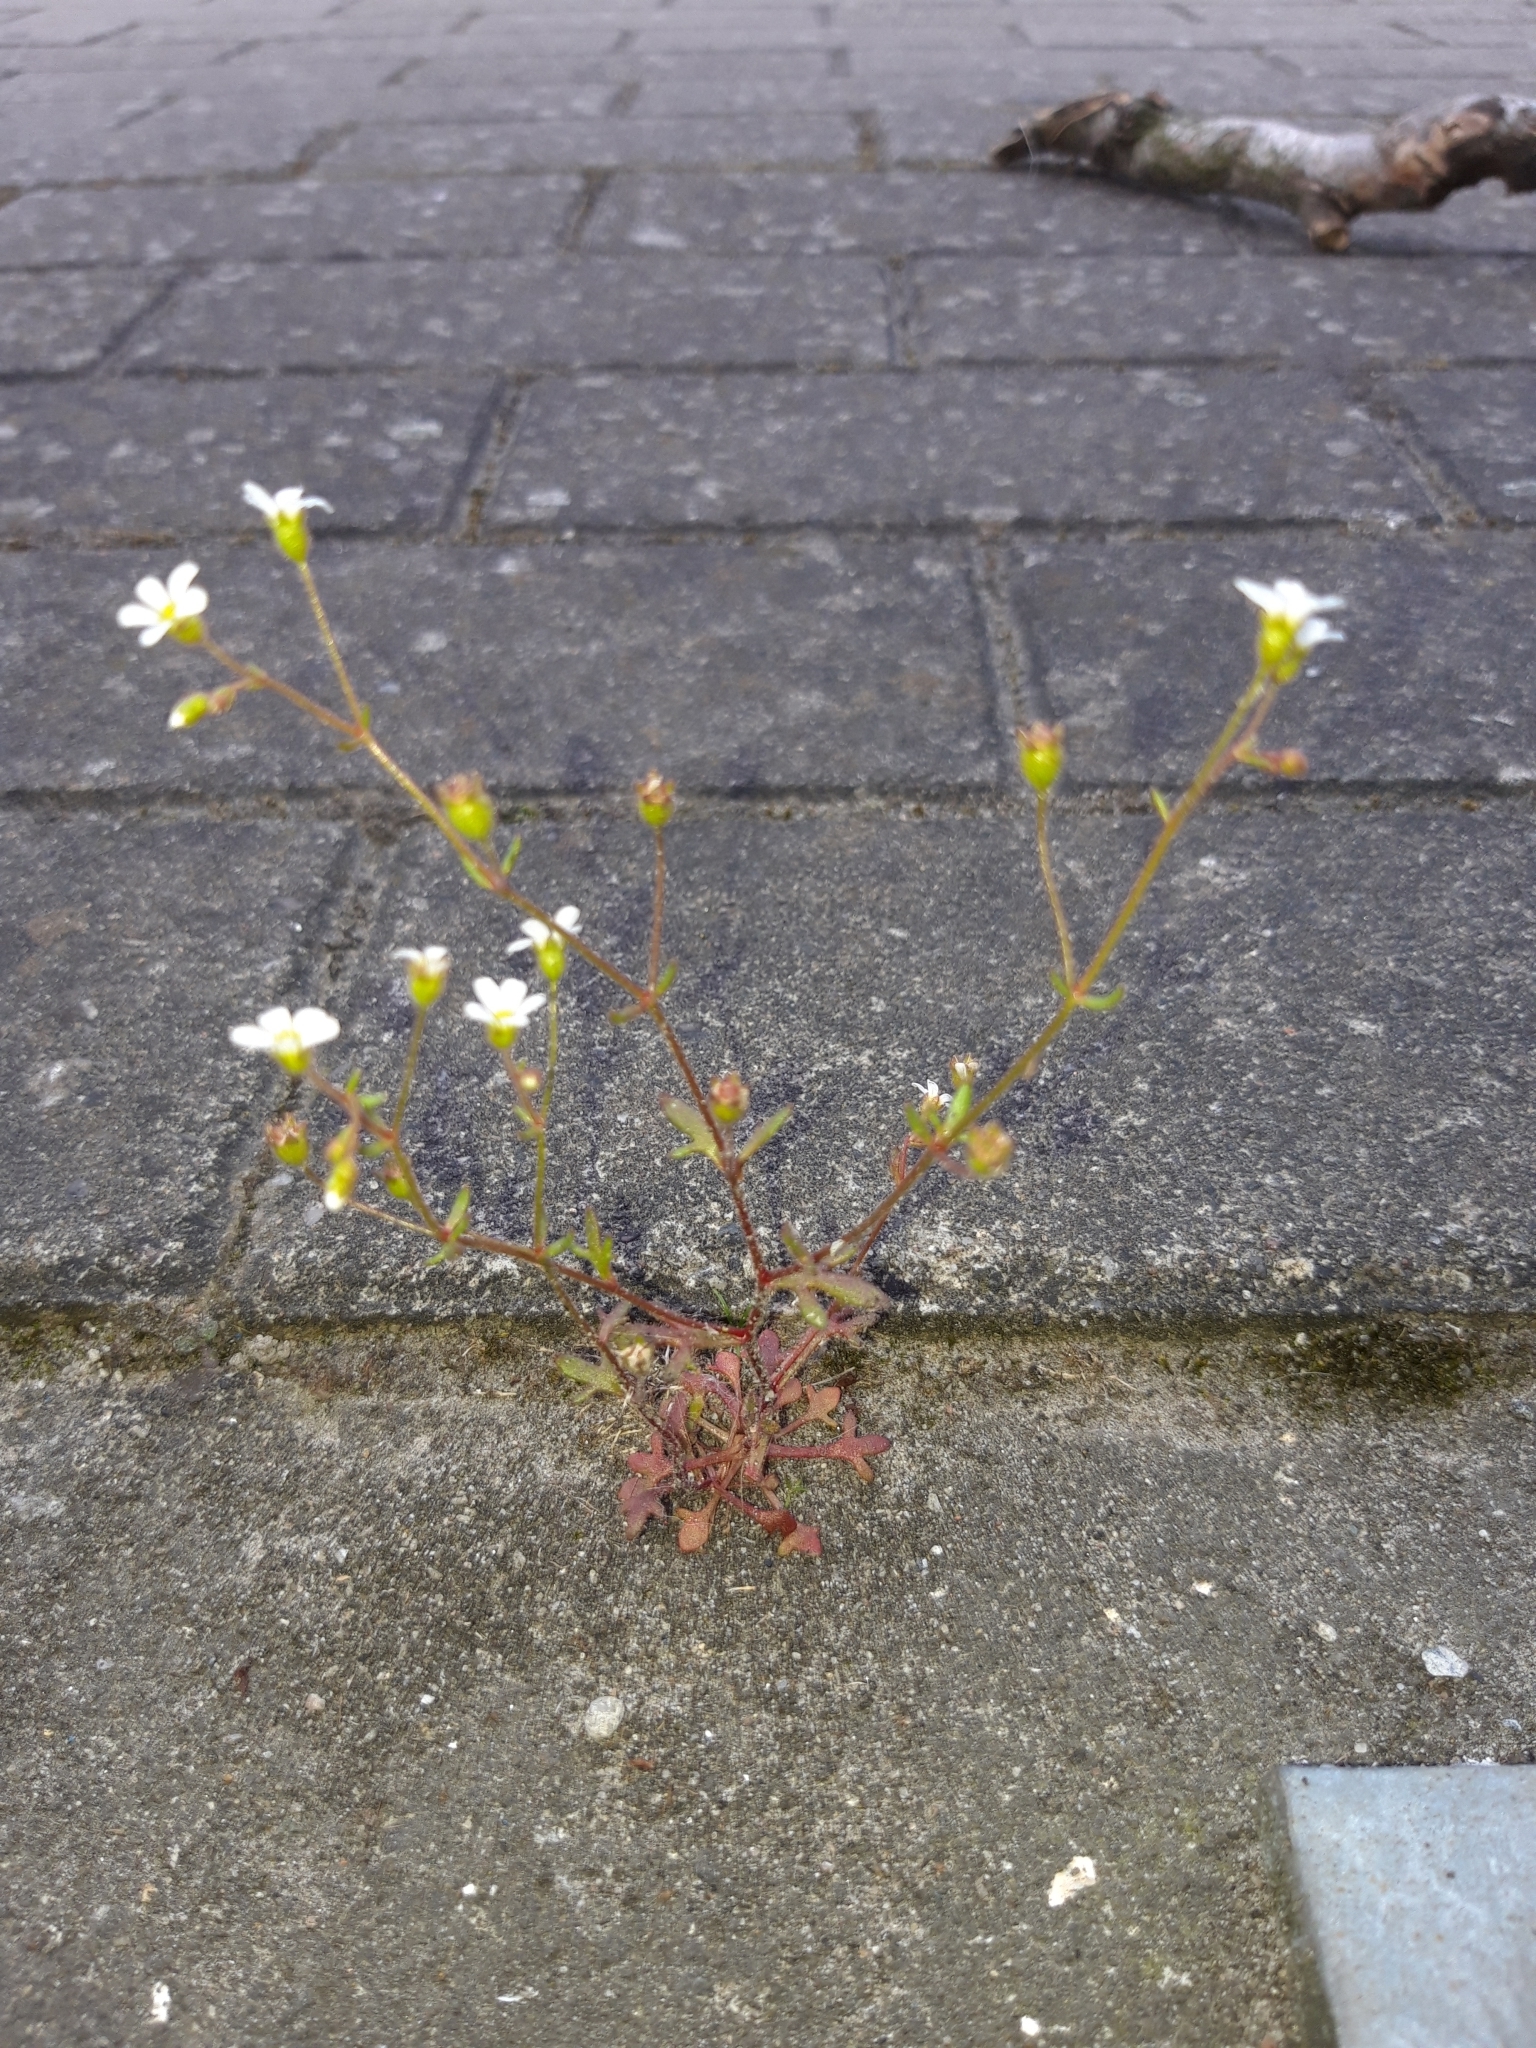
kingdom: Plantae
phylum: Tracheophyta
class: Magnoliopsida
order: Saxifragales
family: Saxifragaceae
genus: Saxifraga
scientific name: Saxifraga tridactylites
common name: Rue-leaved saxifrage
